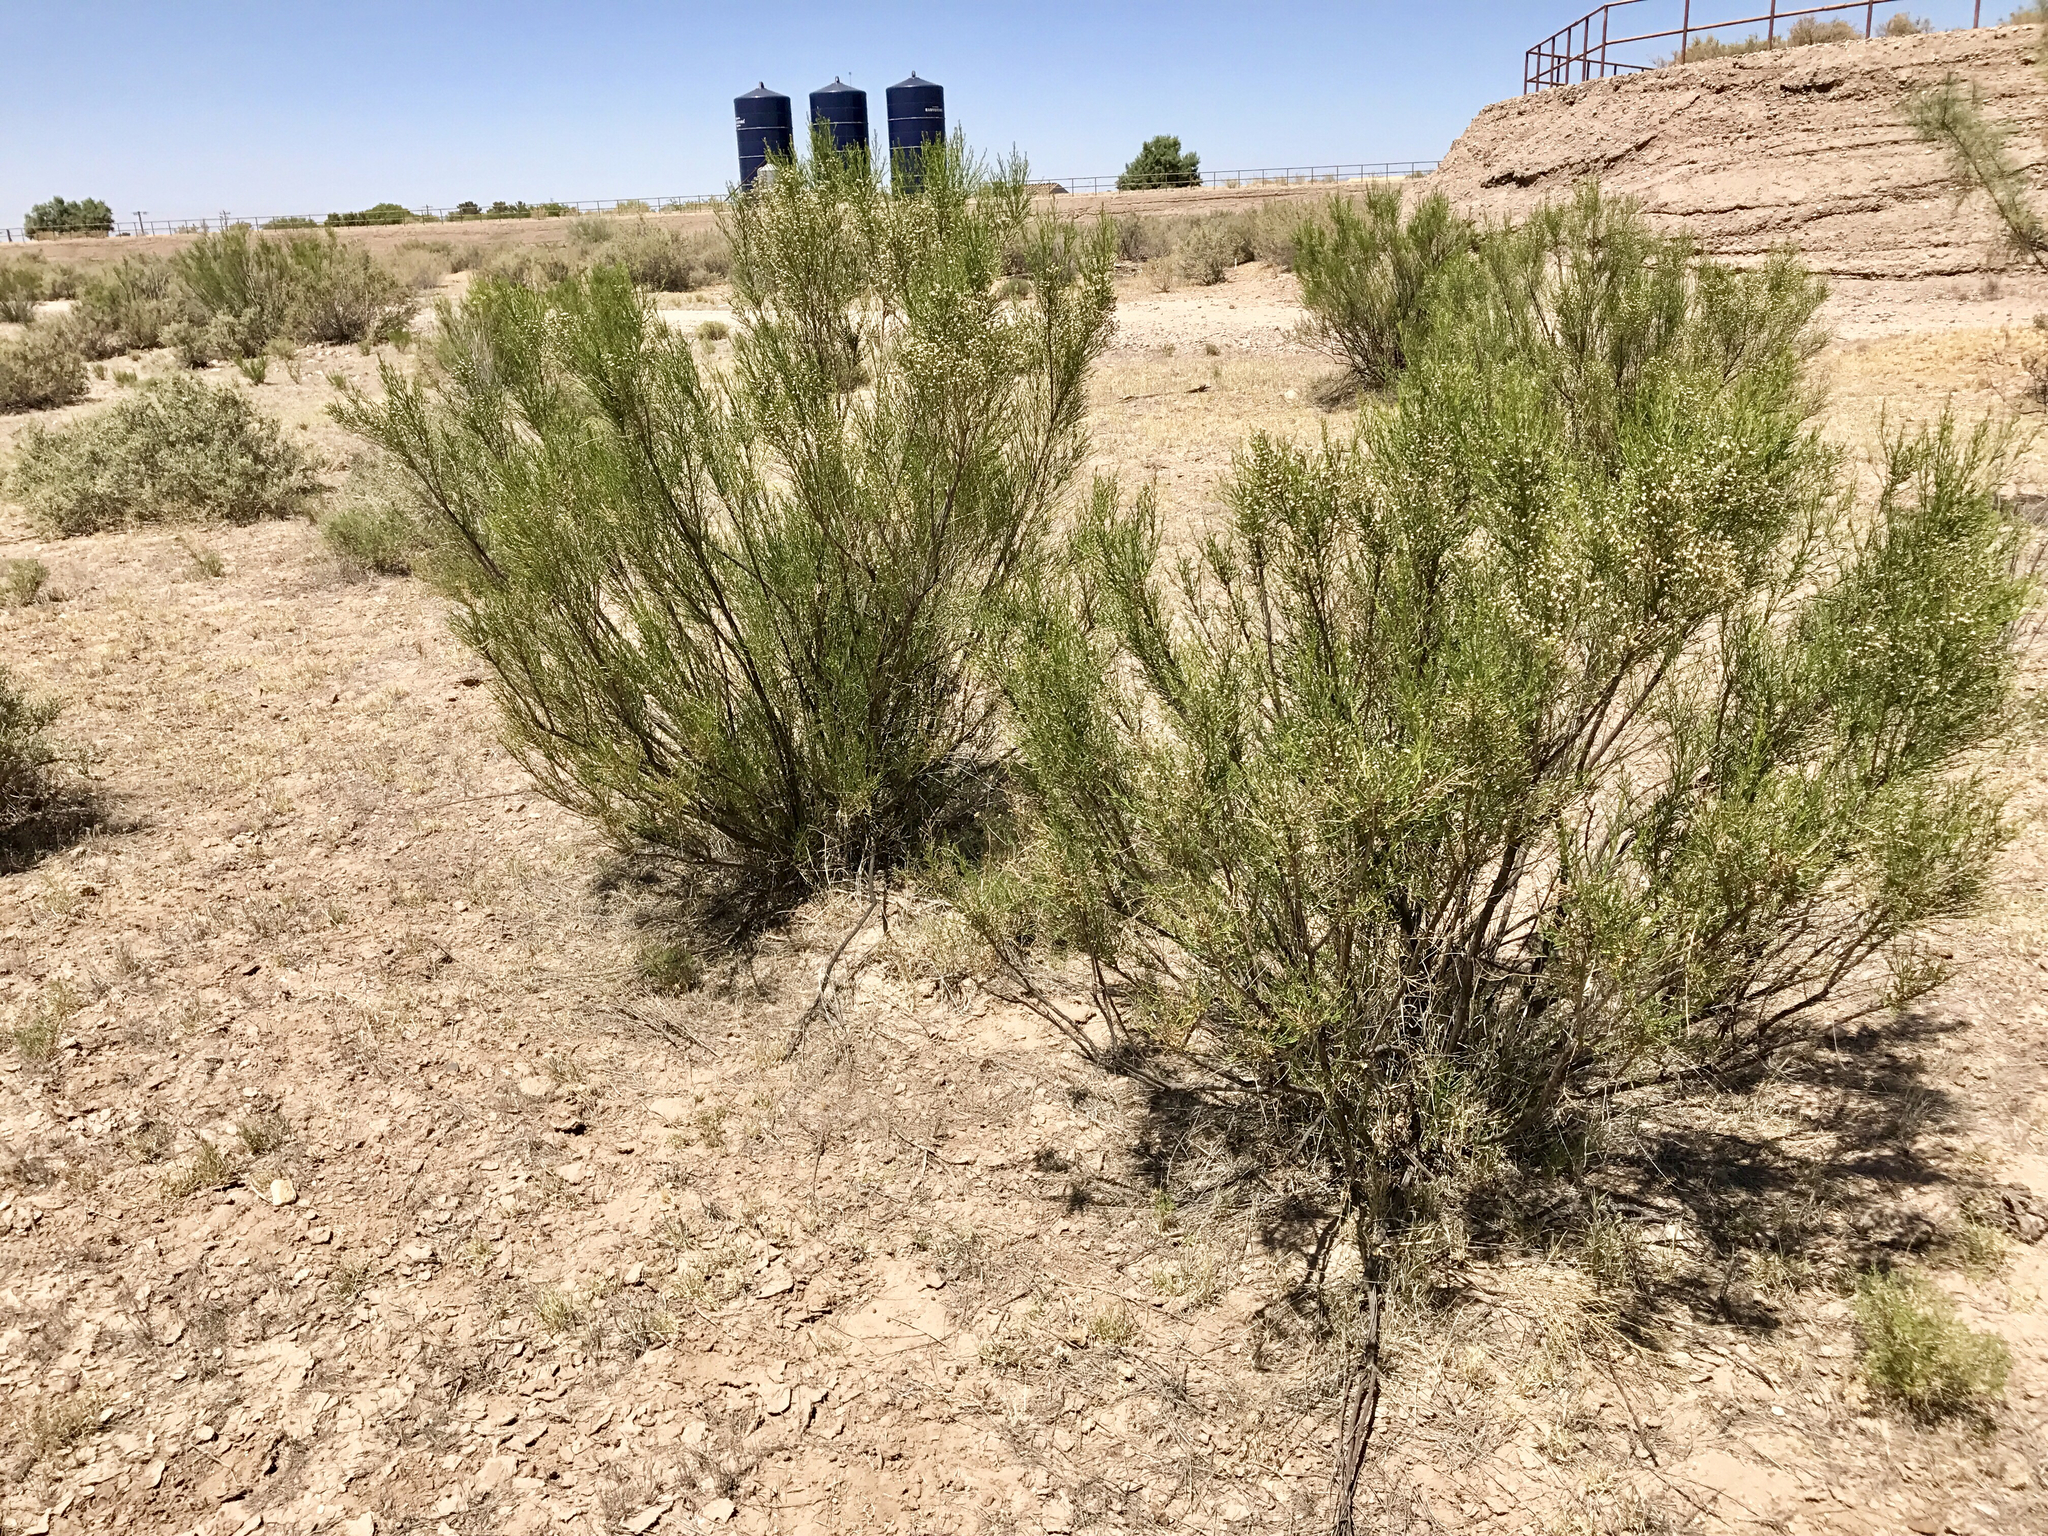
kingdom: Plantae
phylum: Tracheophyta
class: Magnoliopsida
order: Asterales
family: Asteraceae
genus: Baccharis
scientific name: Baccharis sarothroides
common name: Desert-broom
